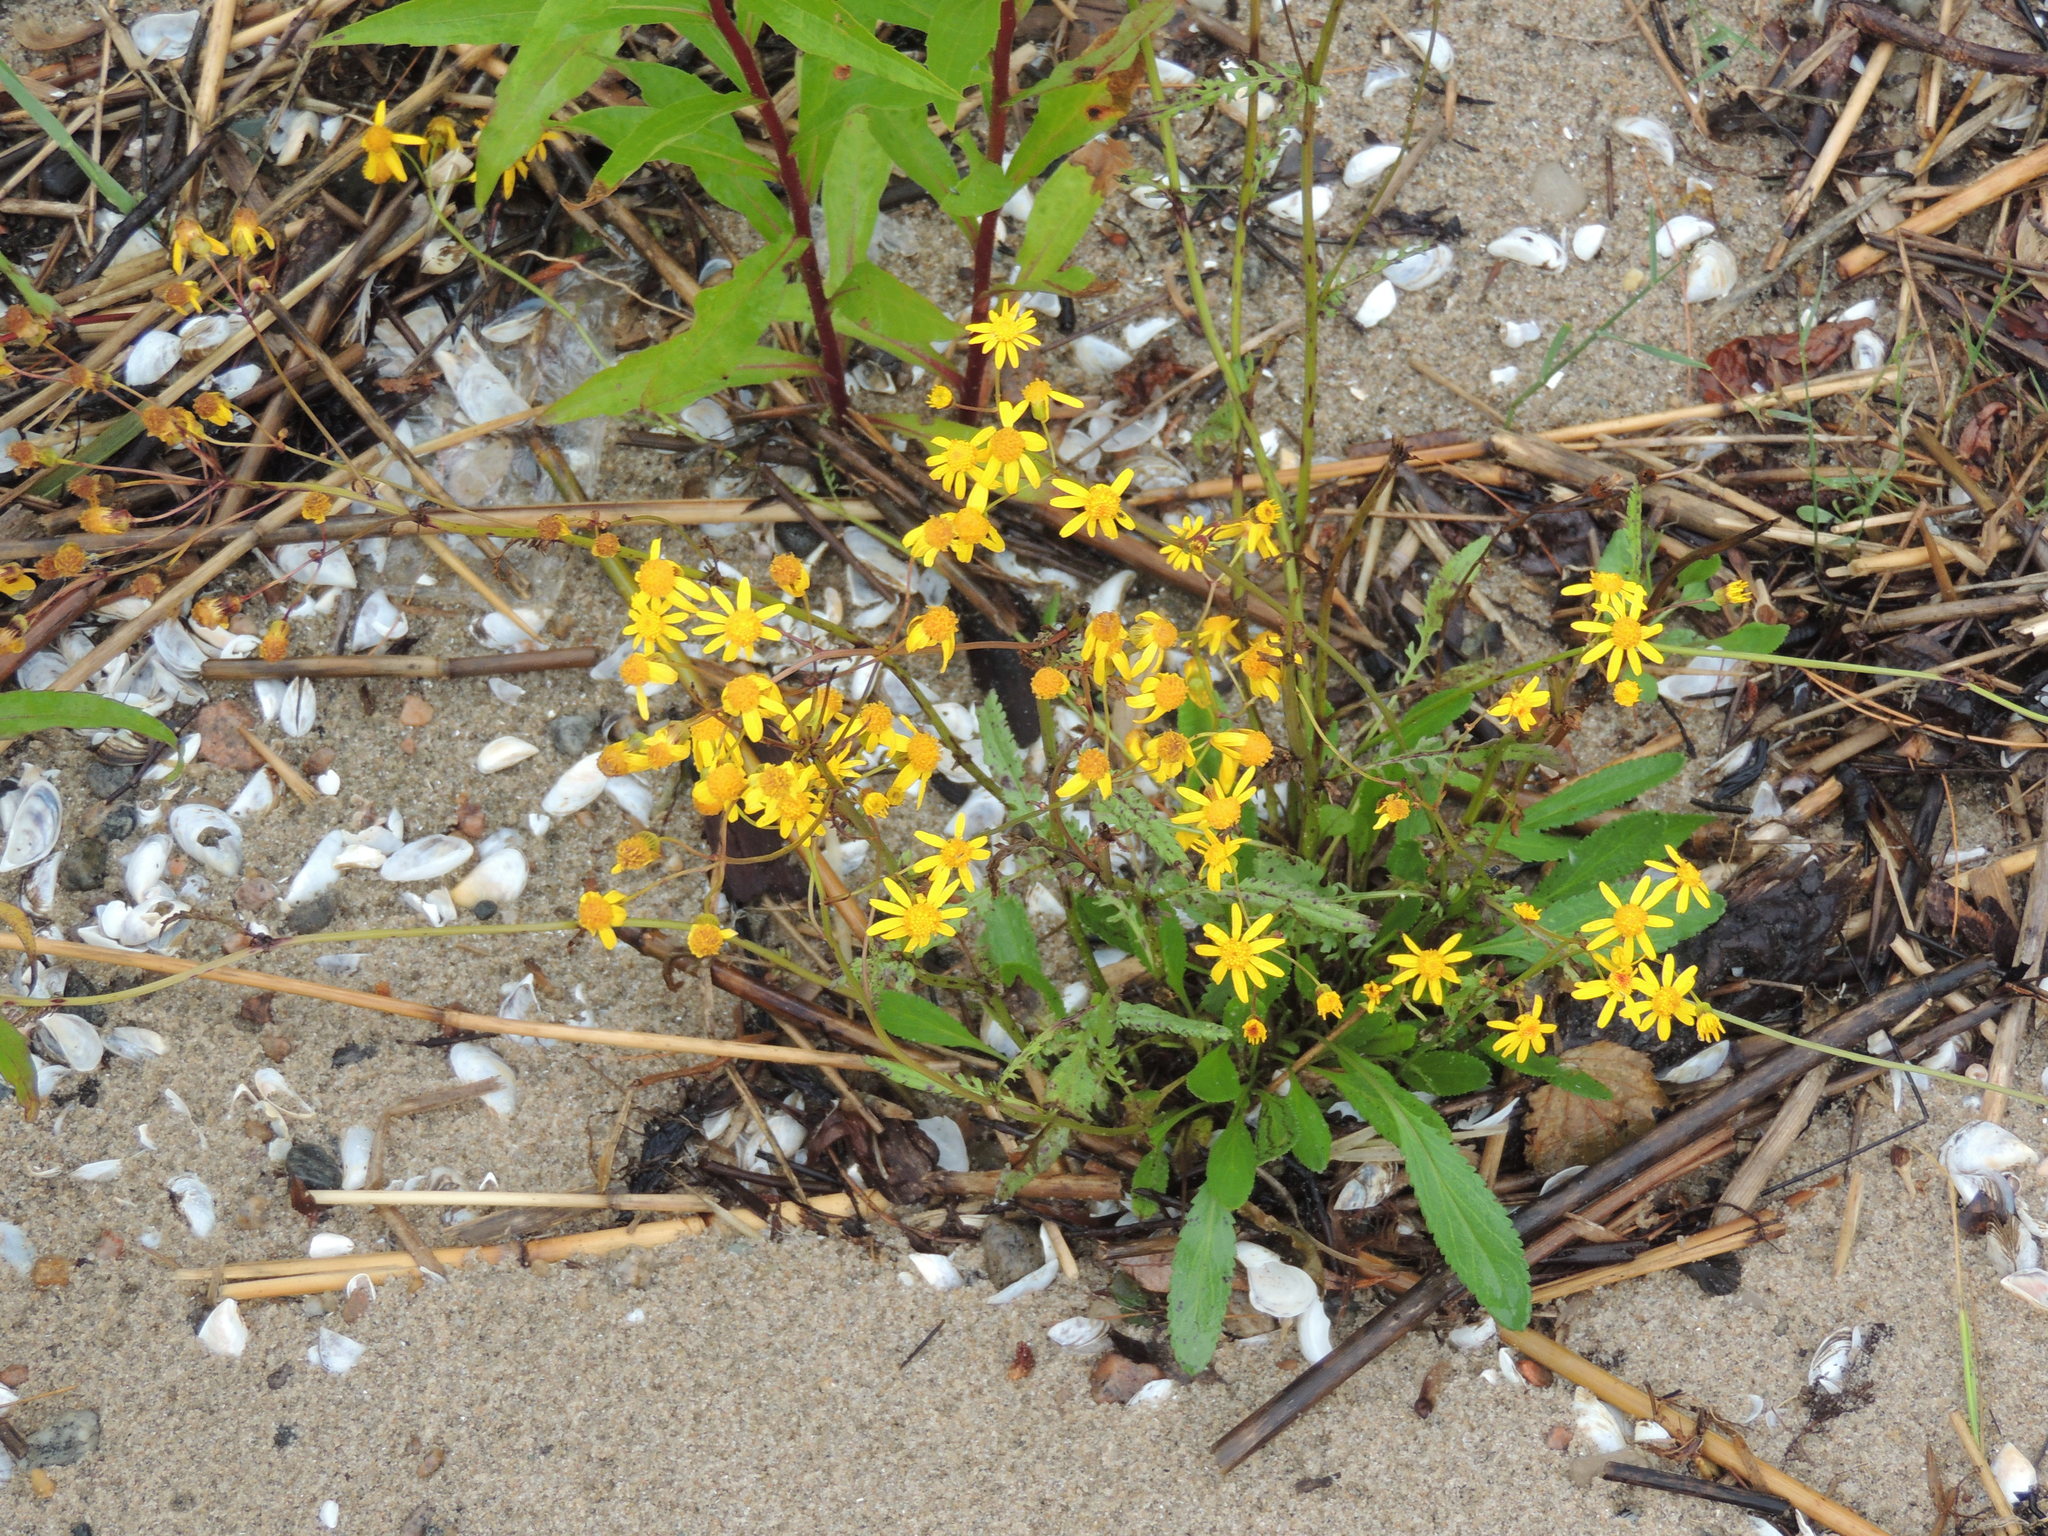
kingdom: Plantae
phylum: Tracheophyta
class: Magnoliopsida
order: Asterales
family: Asteraceae
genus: Packera
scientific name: Packera paupercula
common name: Balsam groundsel
